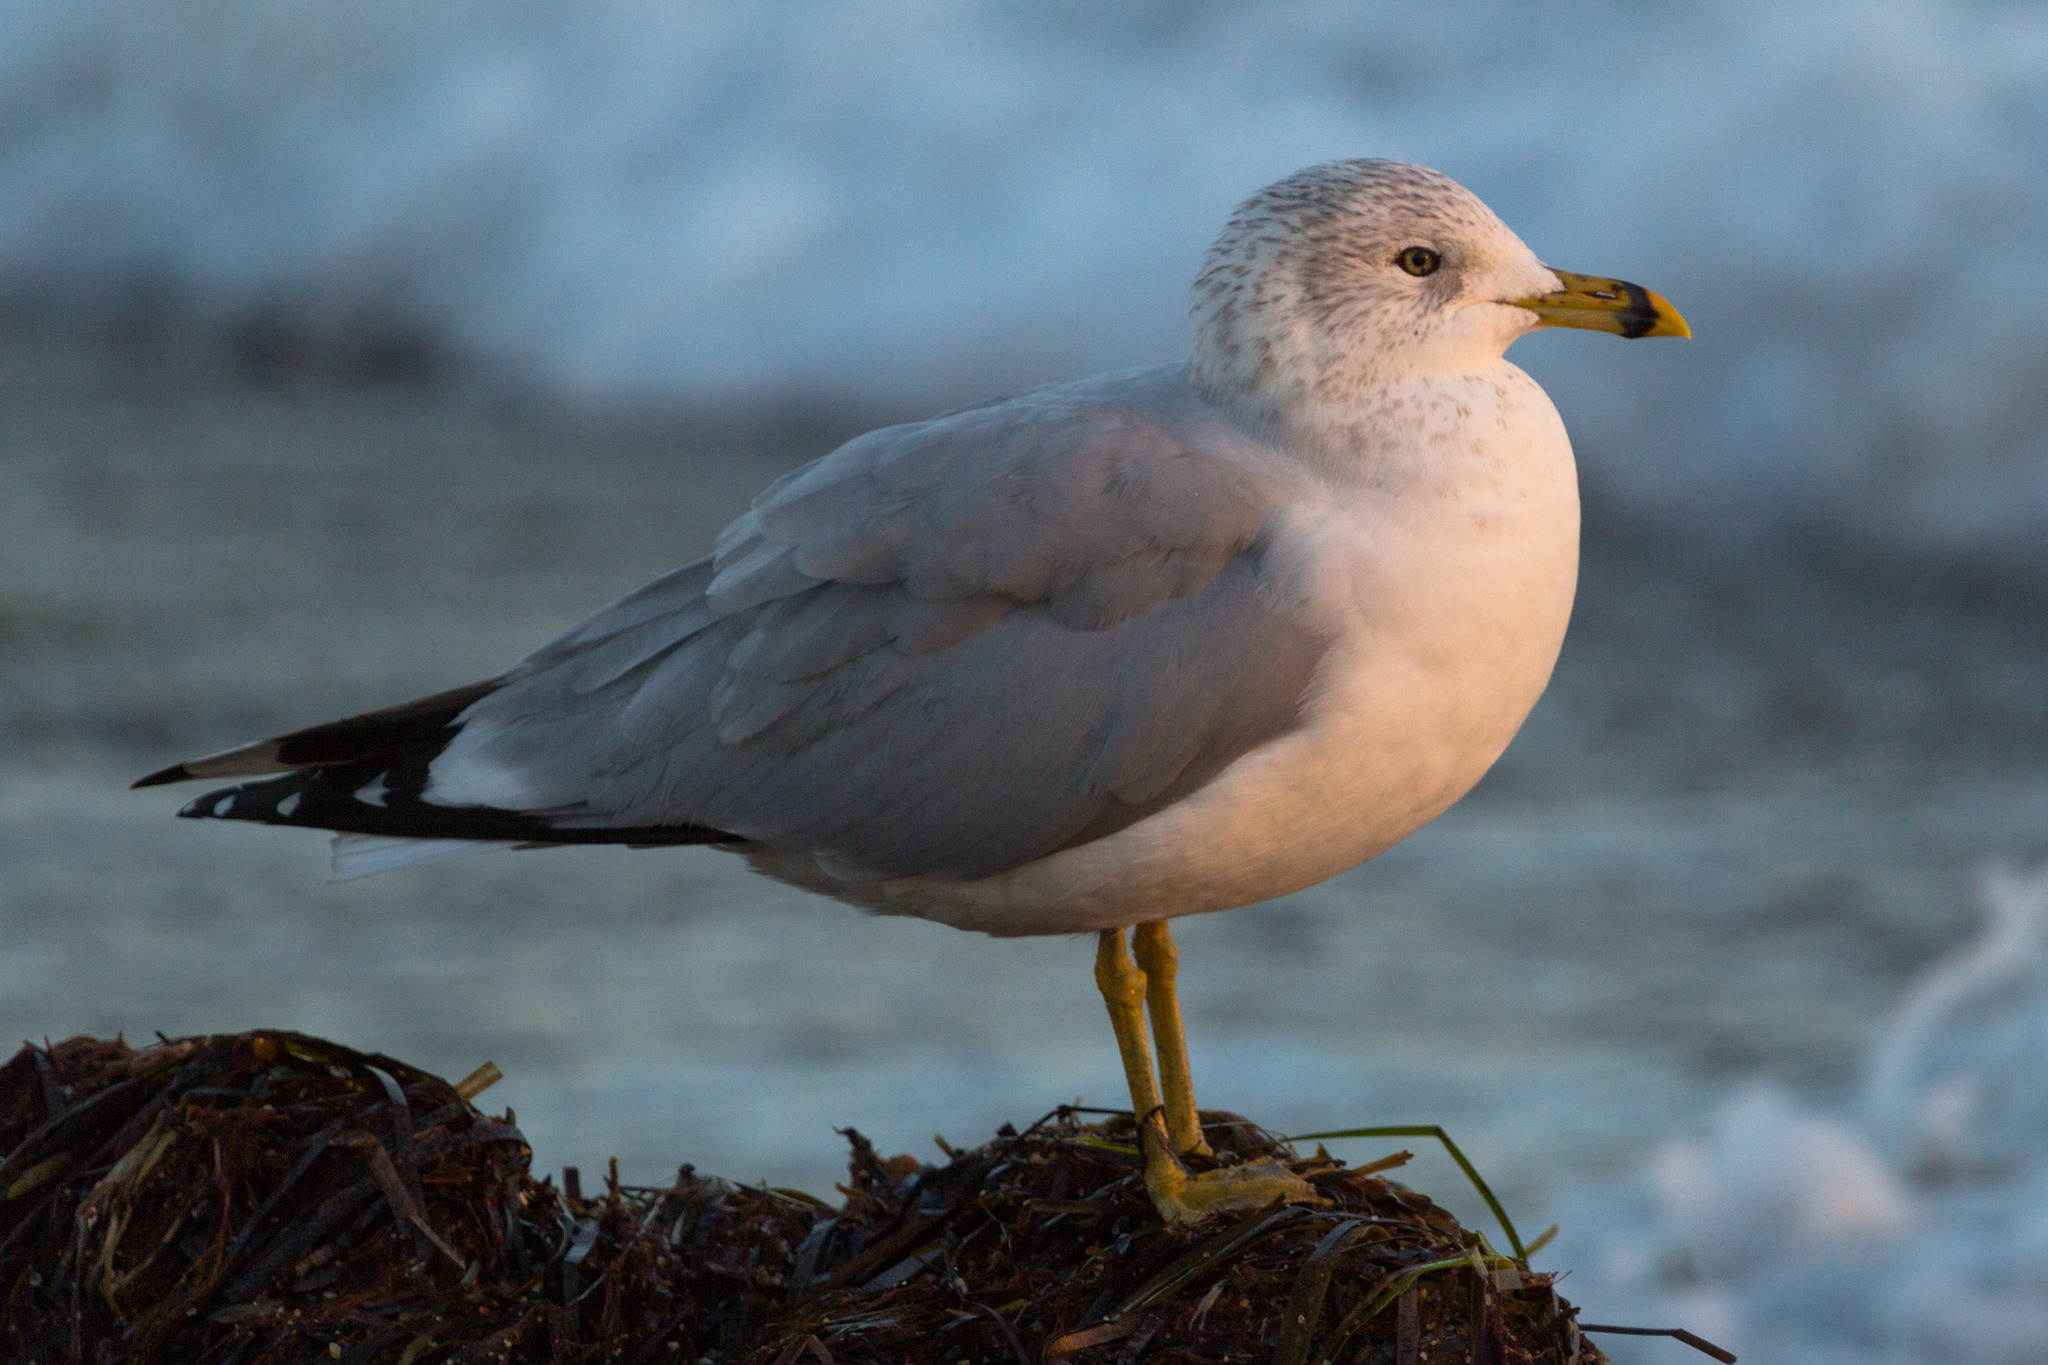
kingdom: Animalia
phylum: Chordata
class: Aves
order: Charadriiformes
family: Laridae
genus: Larus
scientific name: Larus delawarensis
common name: Ring-billed gull
